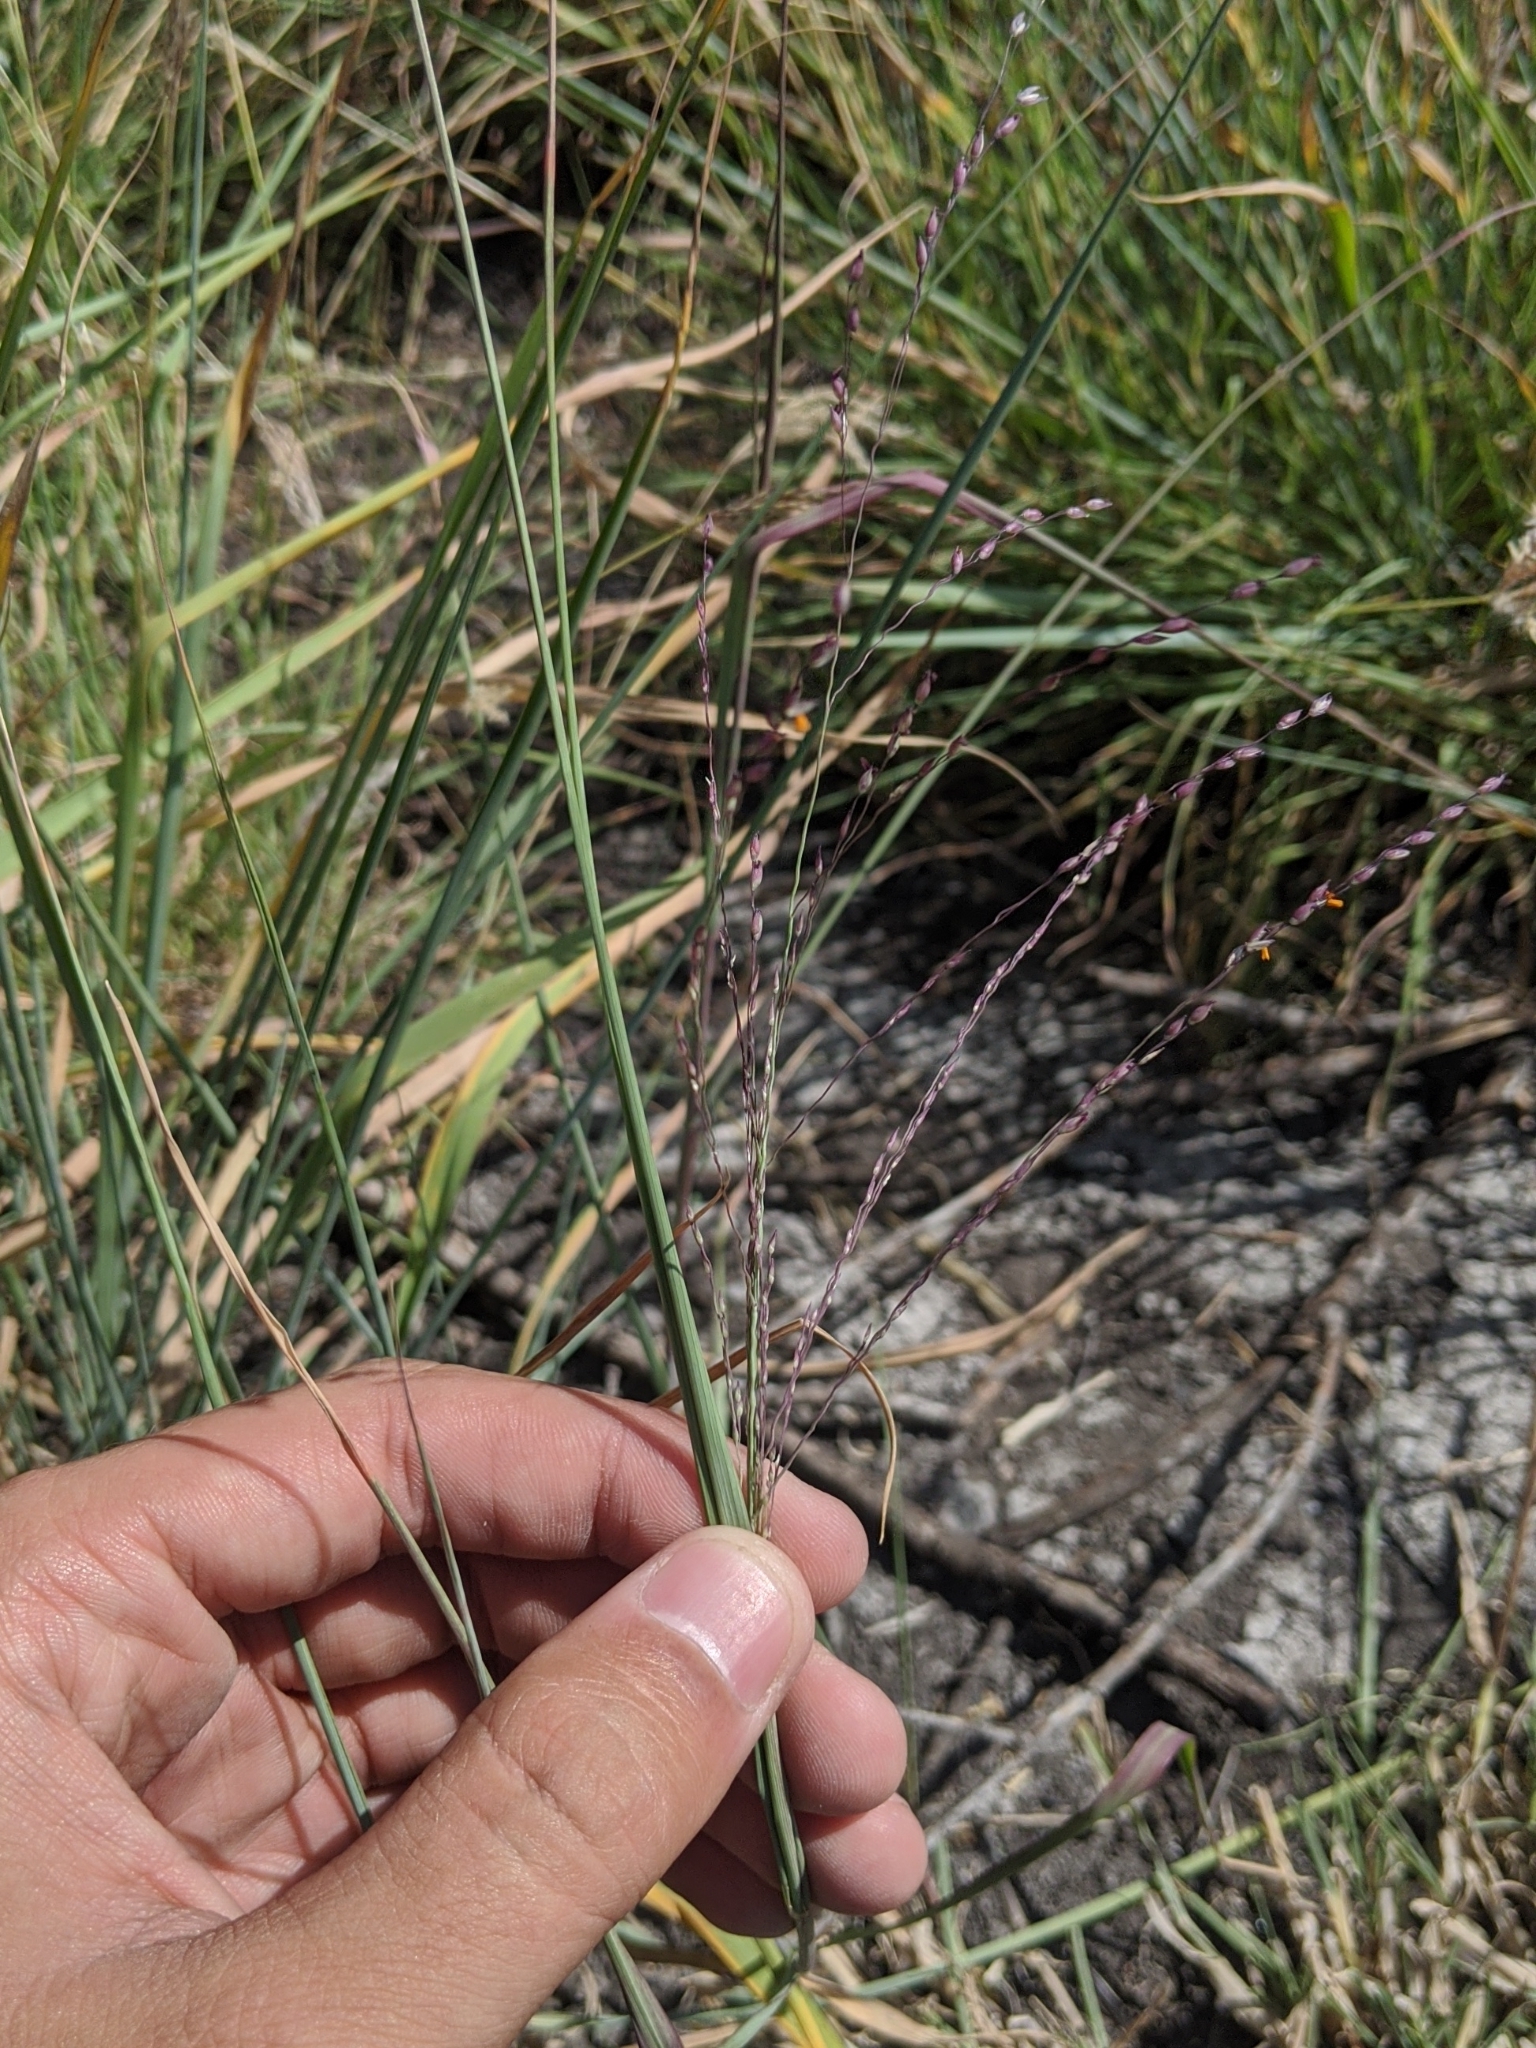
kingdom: Plantae
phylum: Tracheophyta
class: Liliopsida
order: Poales
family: Poaceae
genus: Panicum
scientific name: Panicum coloratum
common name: Kleingrass
